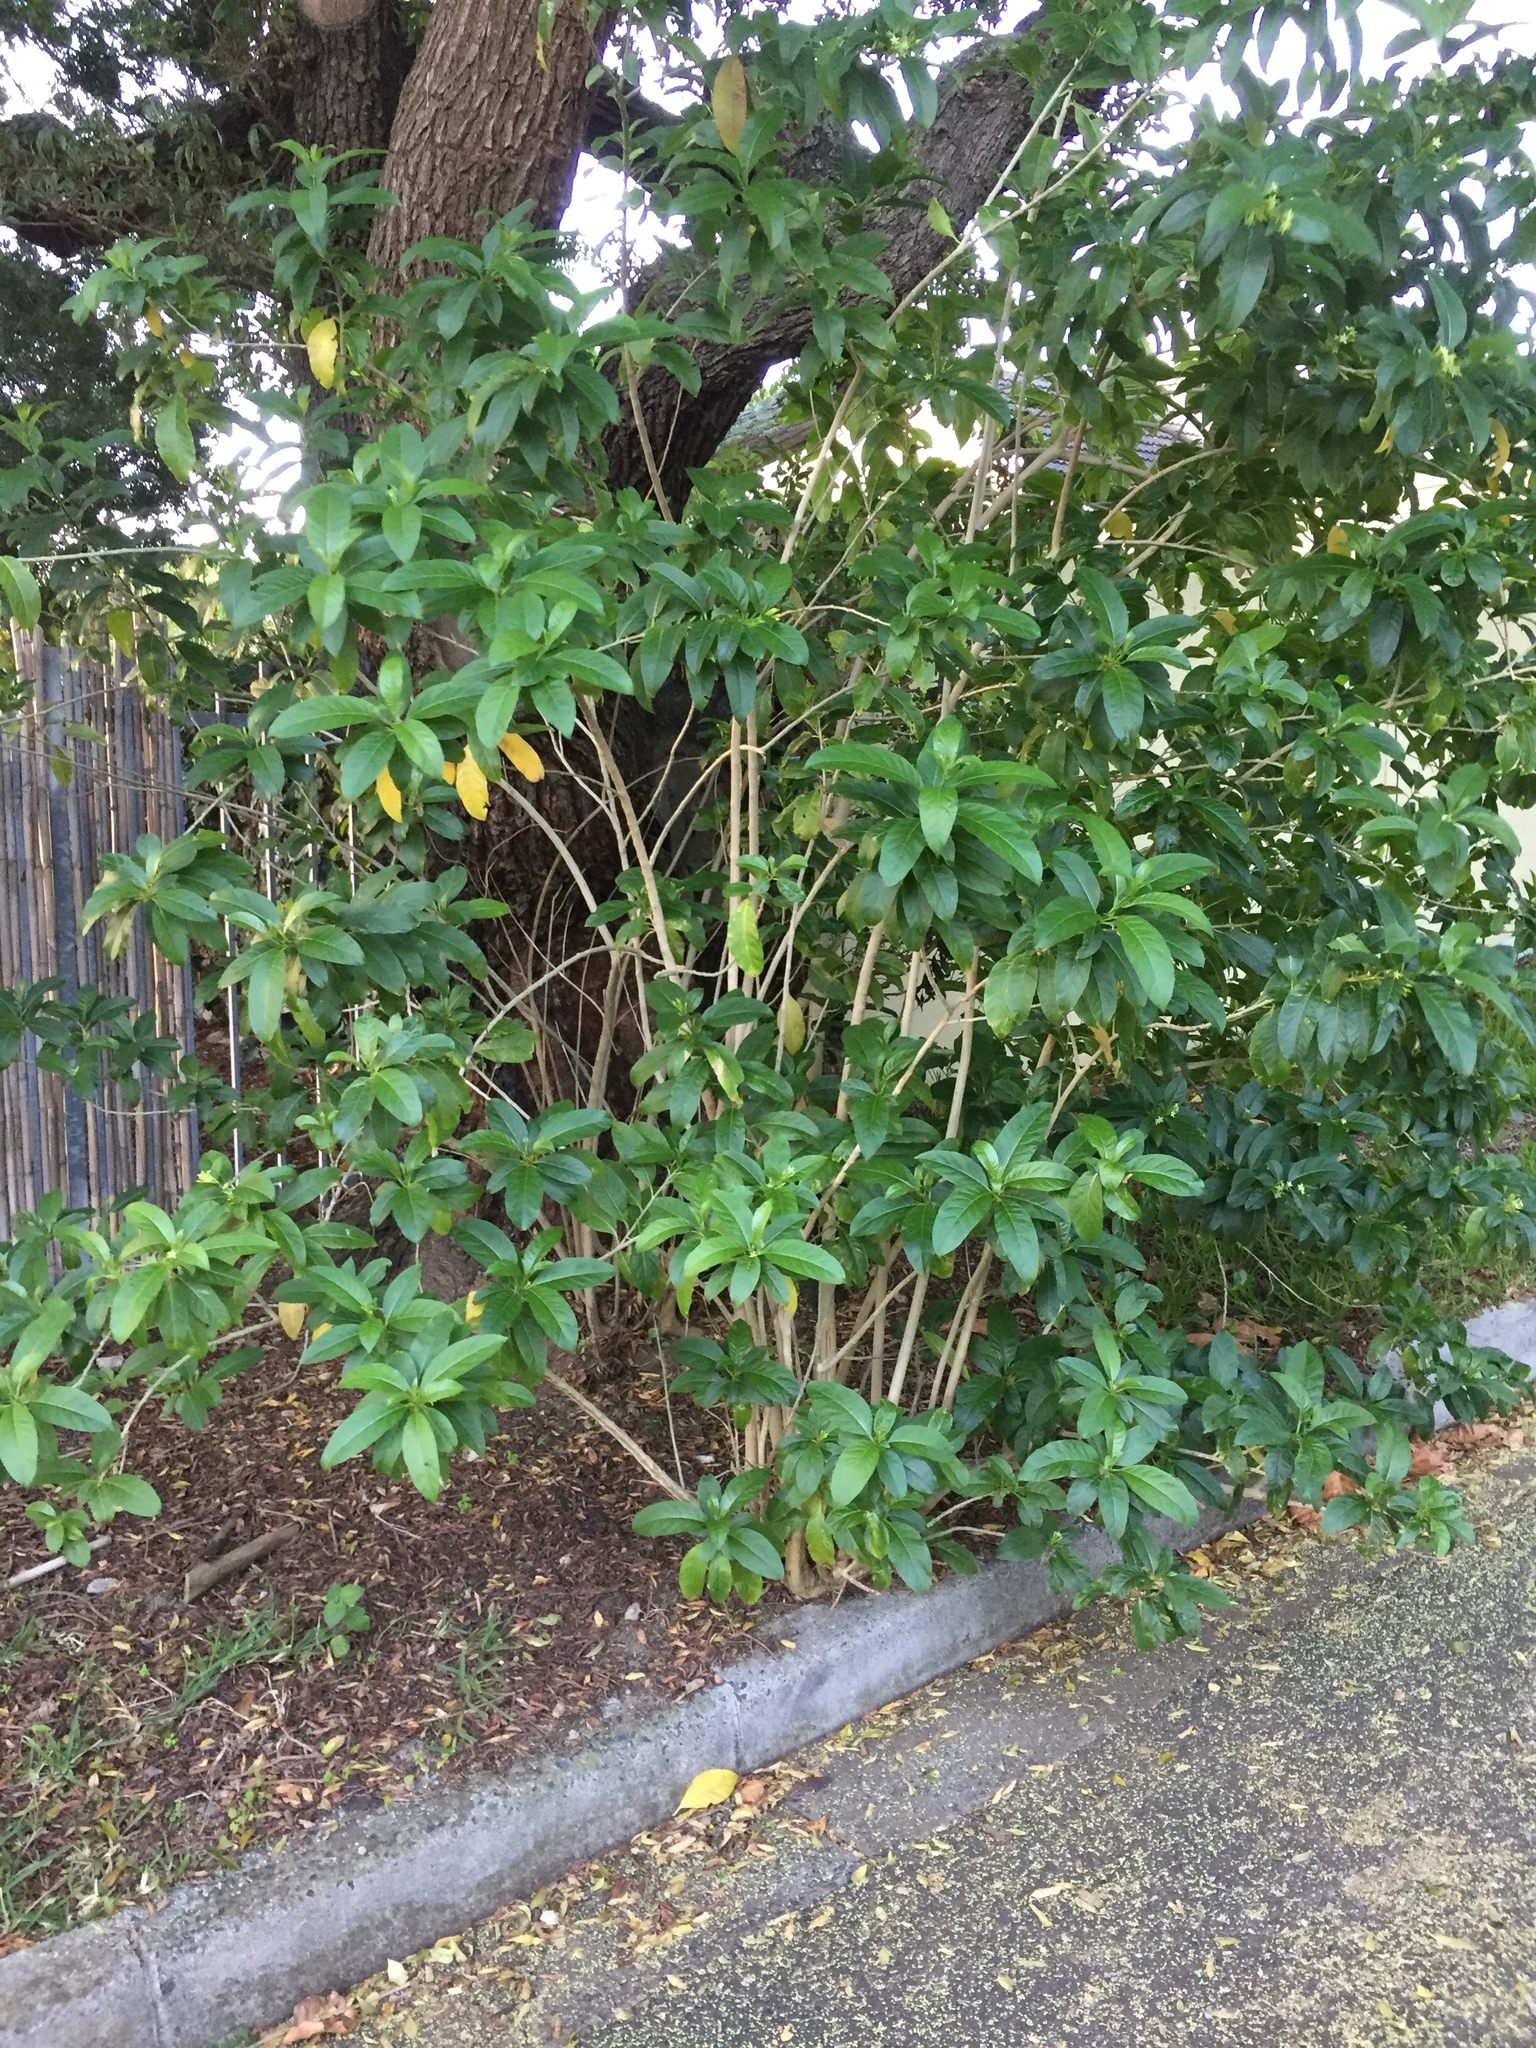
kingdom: Plantae
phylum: Tracheophyta
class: Magnoliopsida
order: Solanales
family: Solanaceae
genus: Cestrum
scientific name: Cestrum laevigatum
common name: Inkberry
